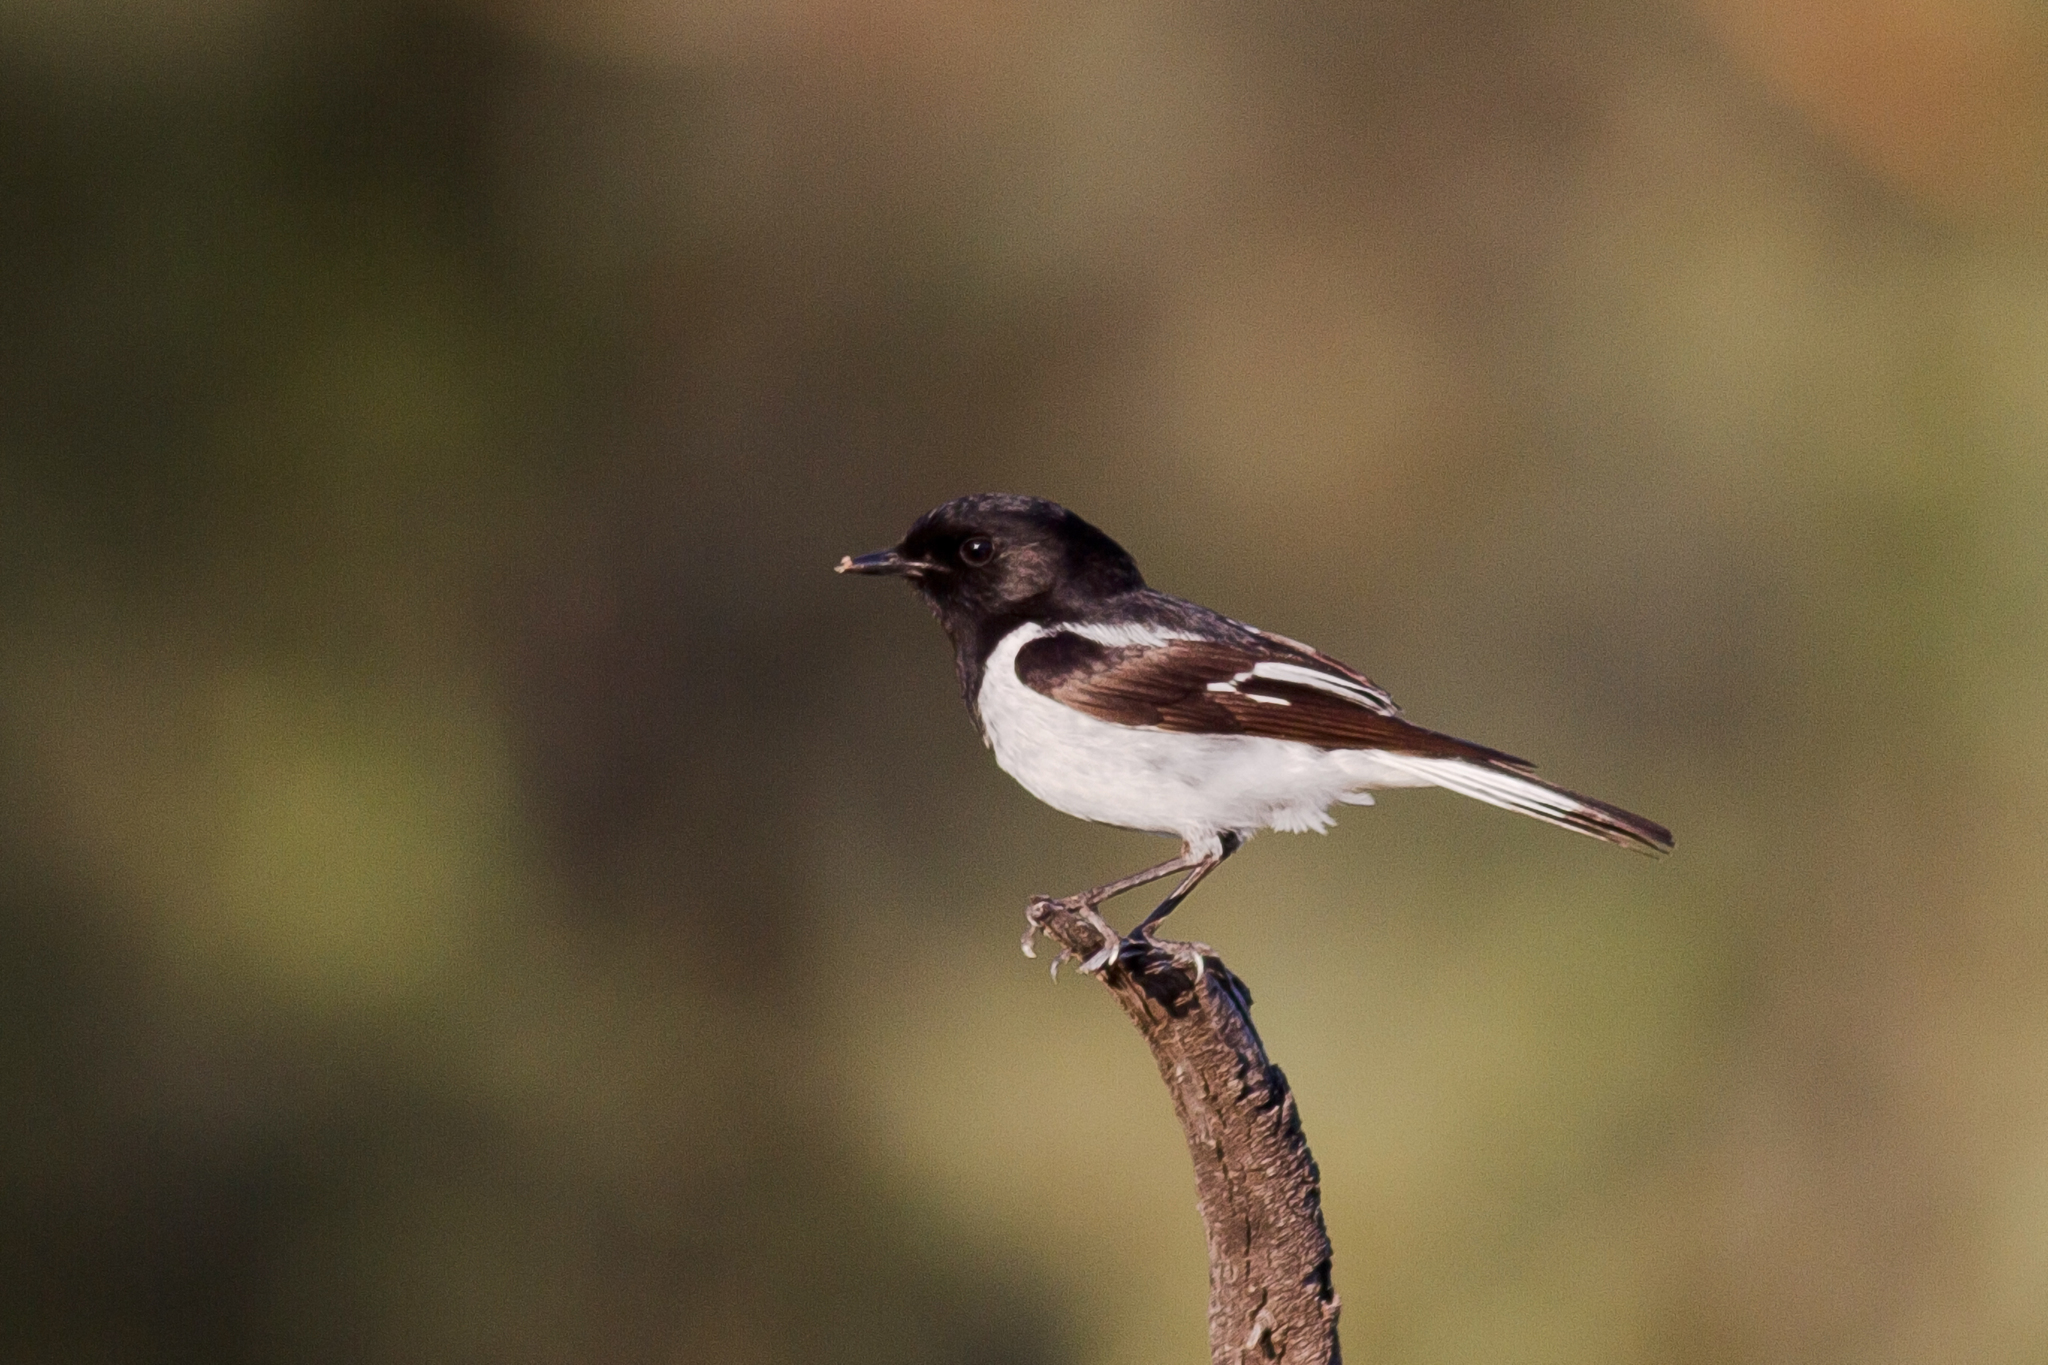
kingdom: Animalia
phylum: Chordata
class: Aves
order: Passeriformes
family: Petroicidae
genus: Melanodryas
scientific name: Melanodryas cucullata
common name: Hooded robin
